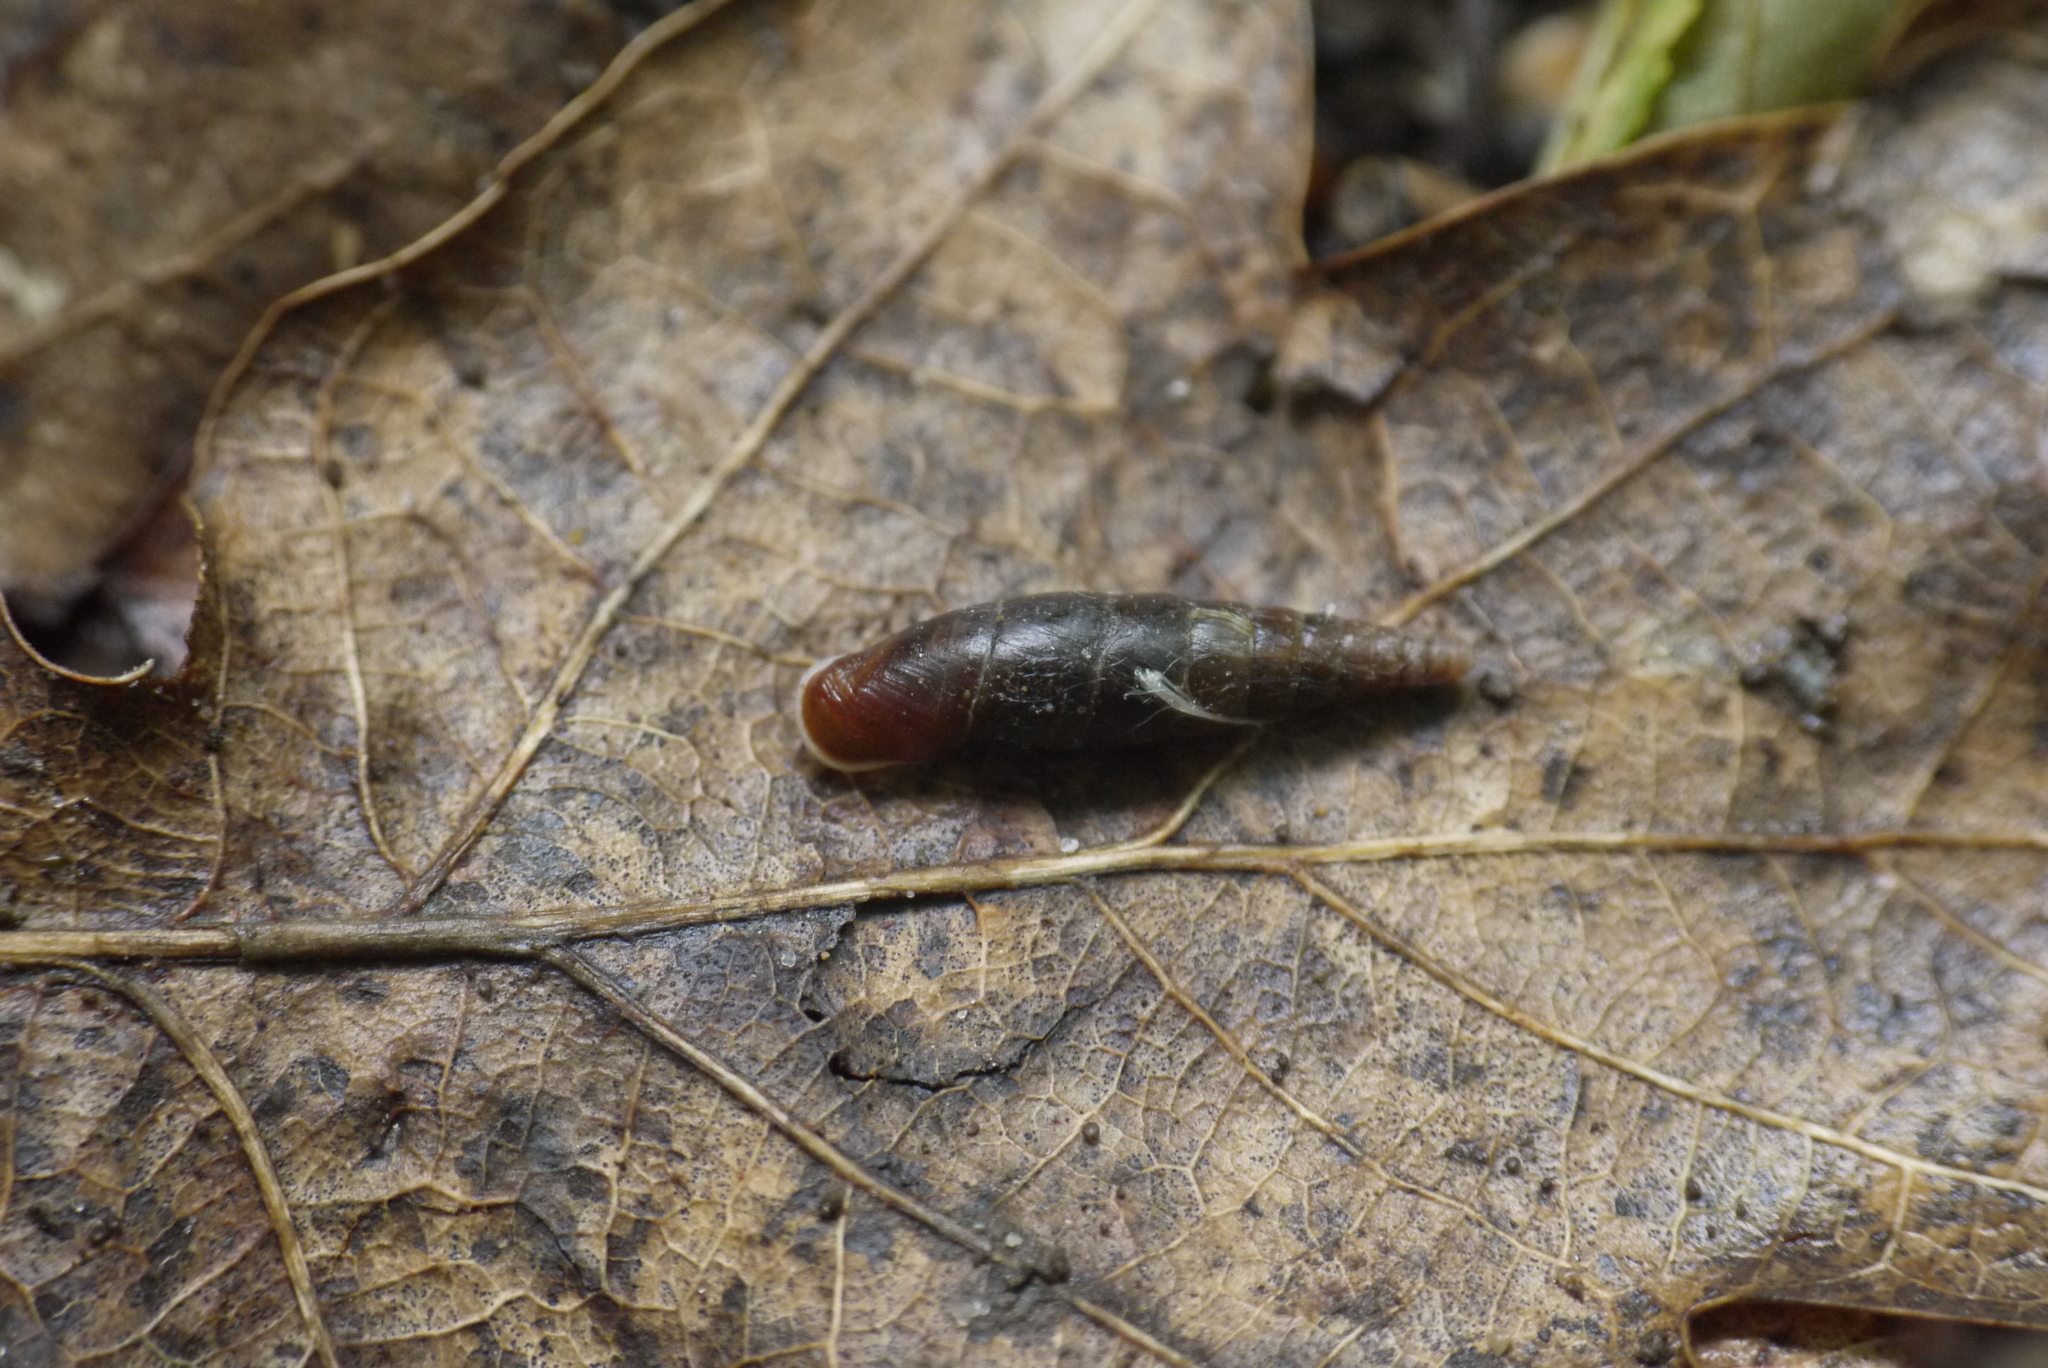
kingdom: Animalia
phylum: Mollusca
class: Gastropoda
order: Stylommatophora
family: Clausiliidae
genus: Cochlodina
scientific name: Cochlodina laminata
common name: Plaited door snail
